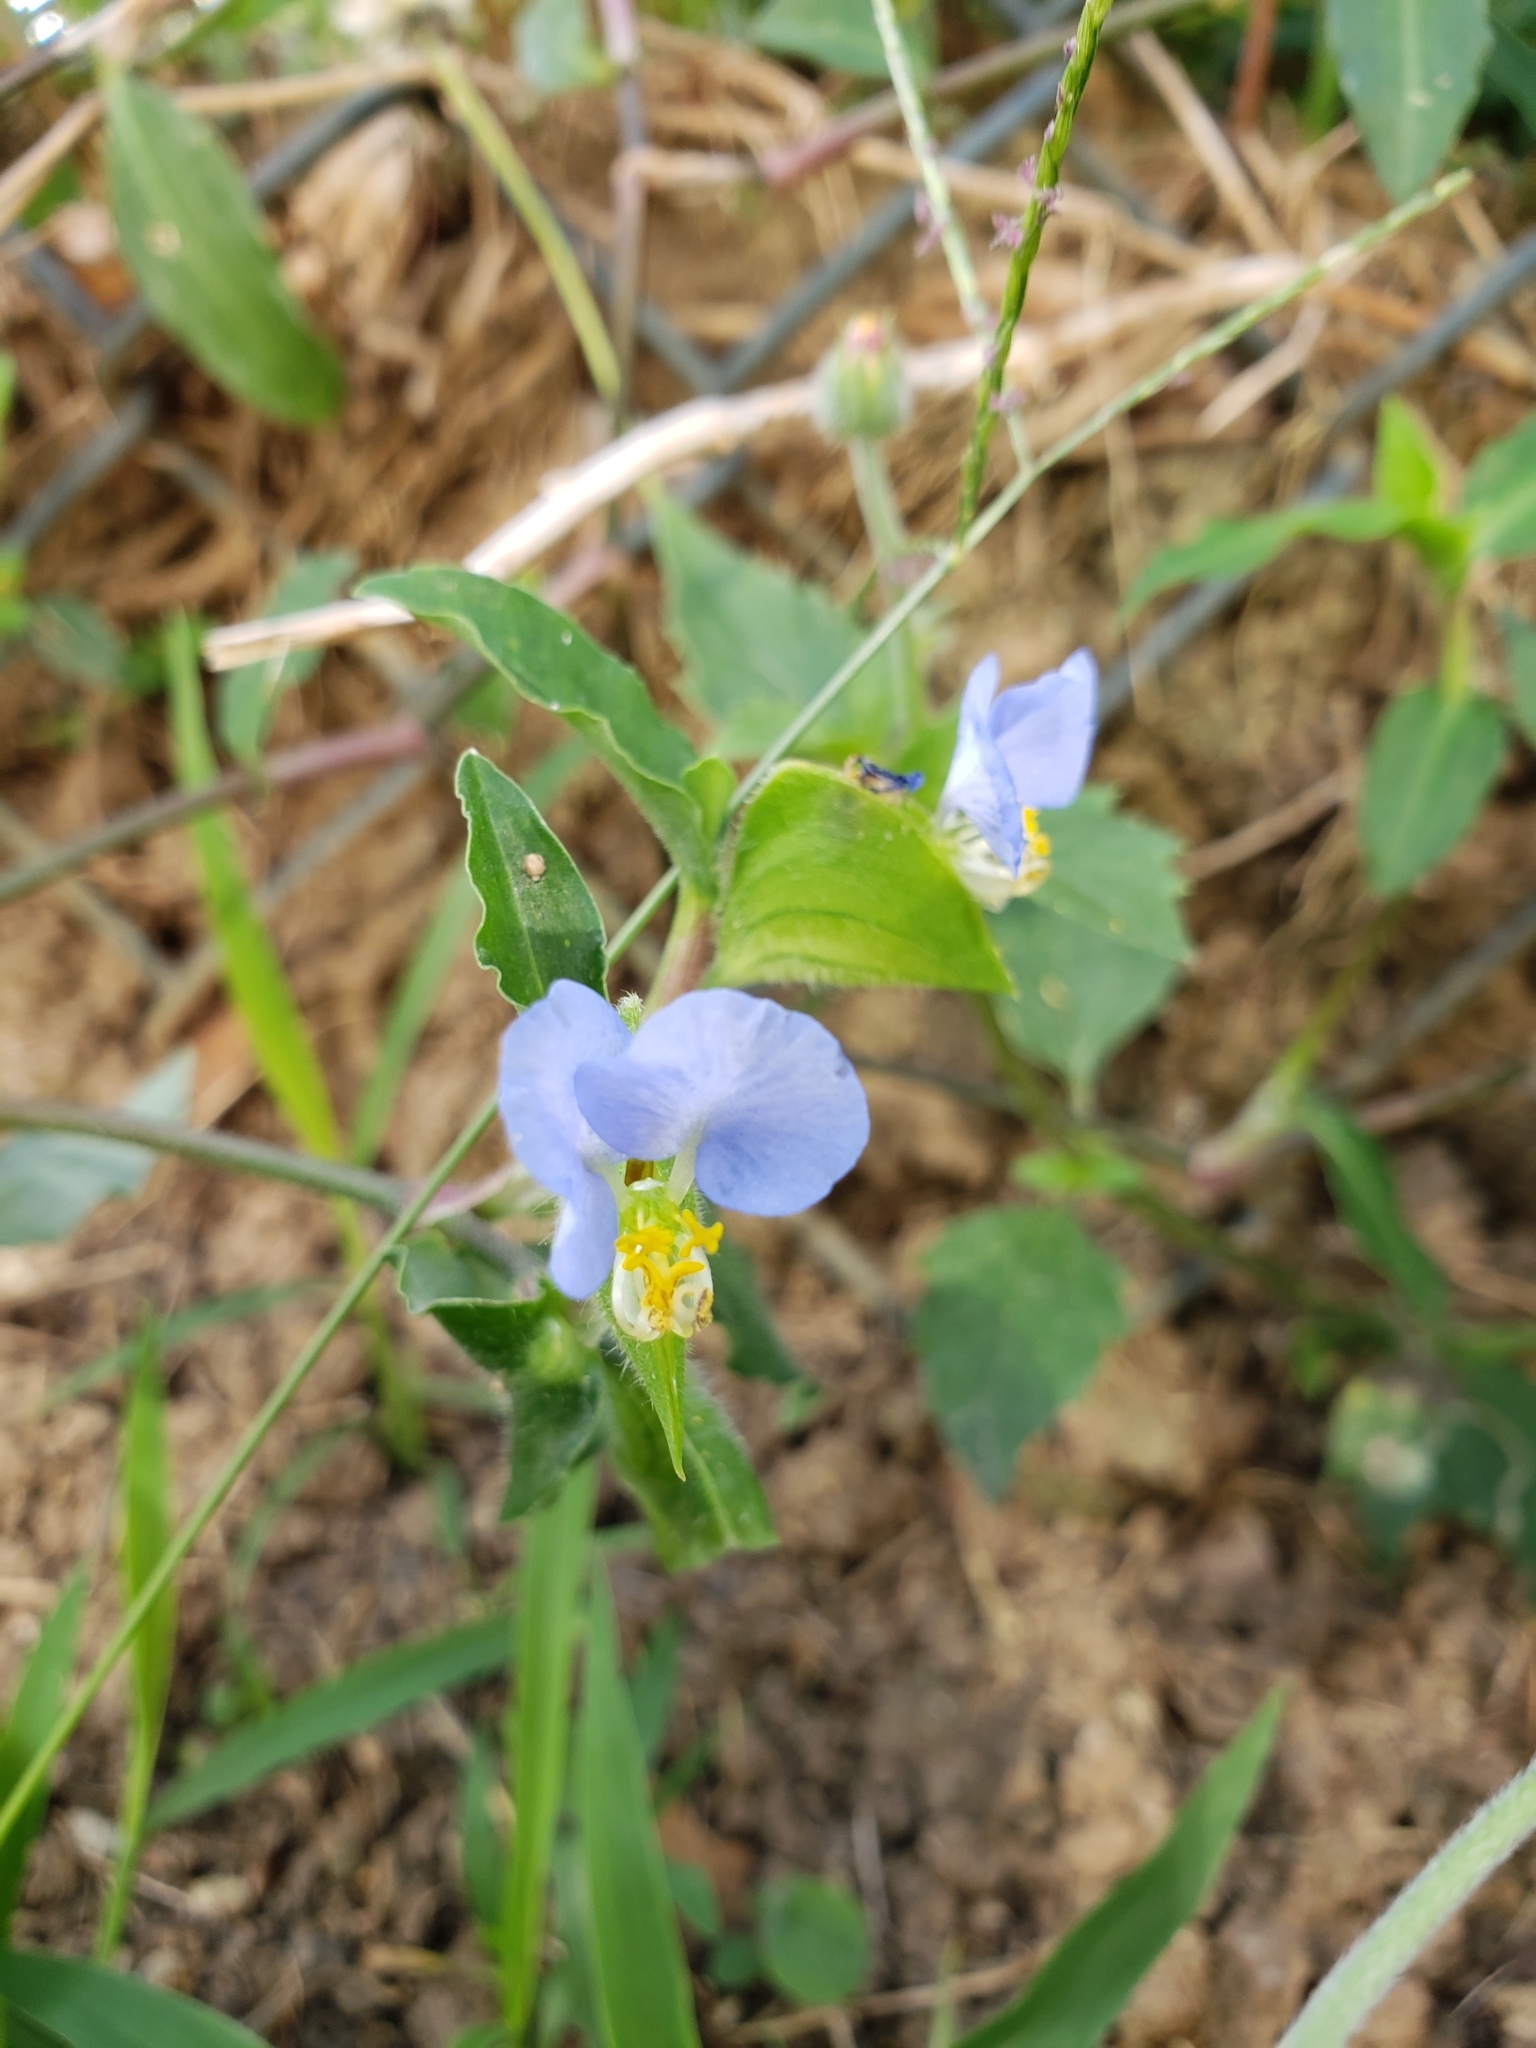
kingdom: Plantae
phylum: Tracheophyta
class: Liliopsida
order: Commelinales
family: Commelinaceae
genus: Commelina
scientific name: Commelina erecta
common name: Blousel blommetjie
